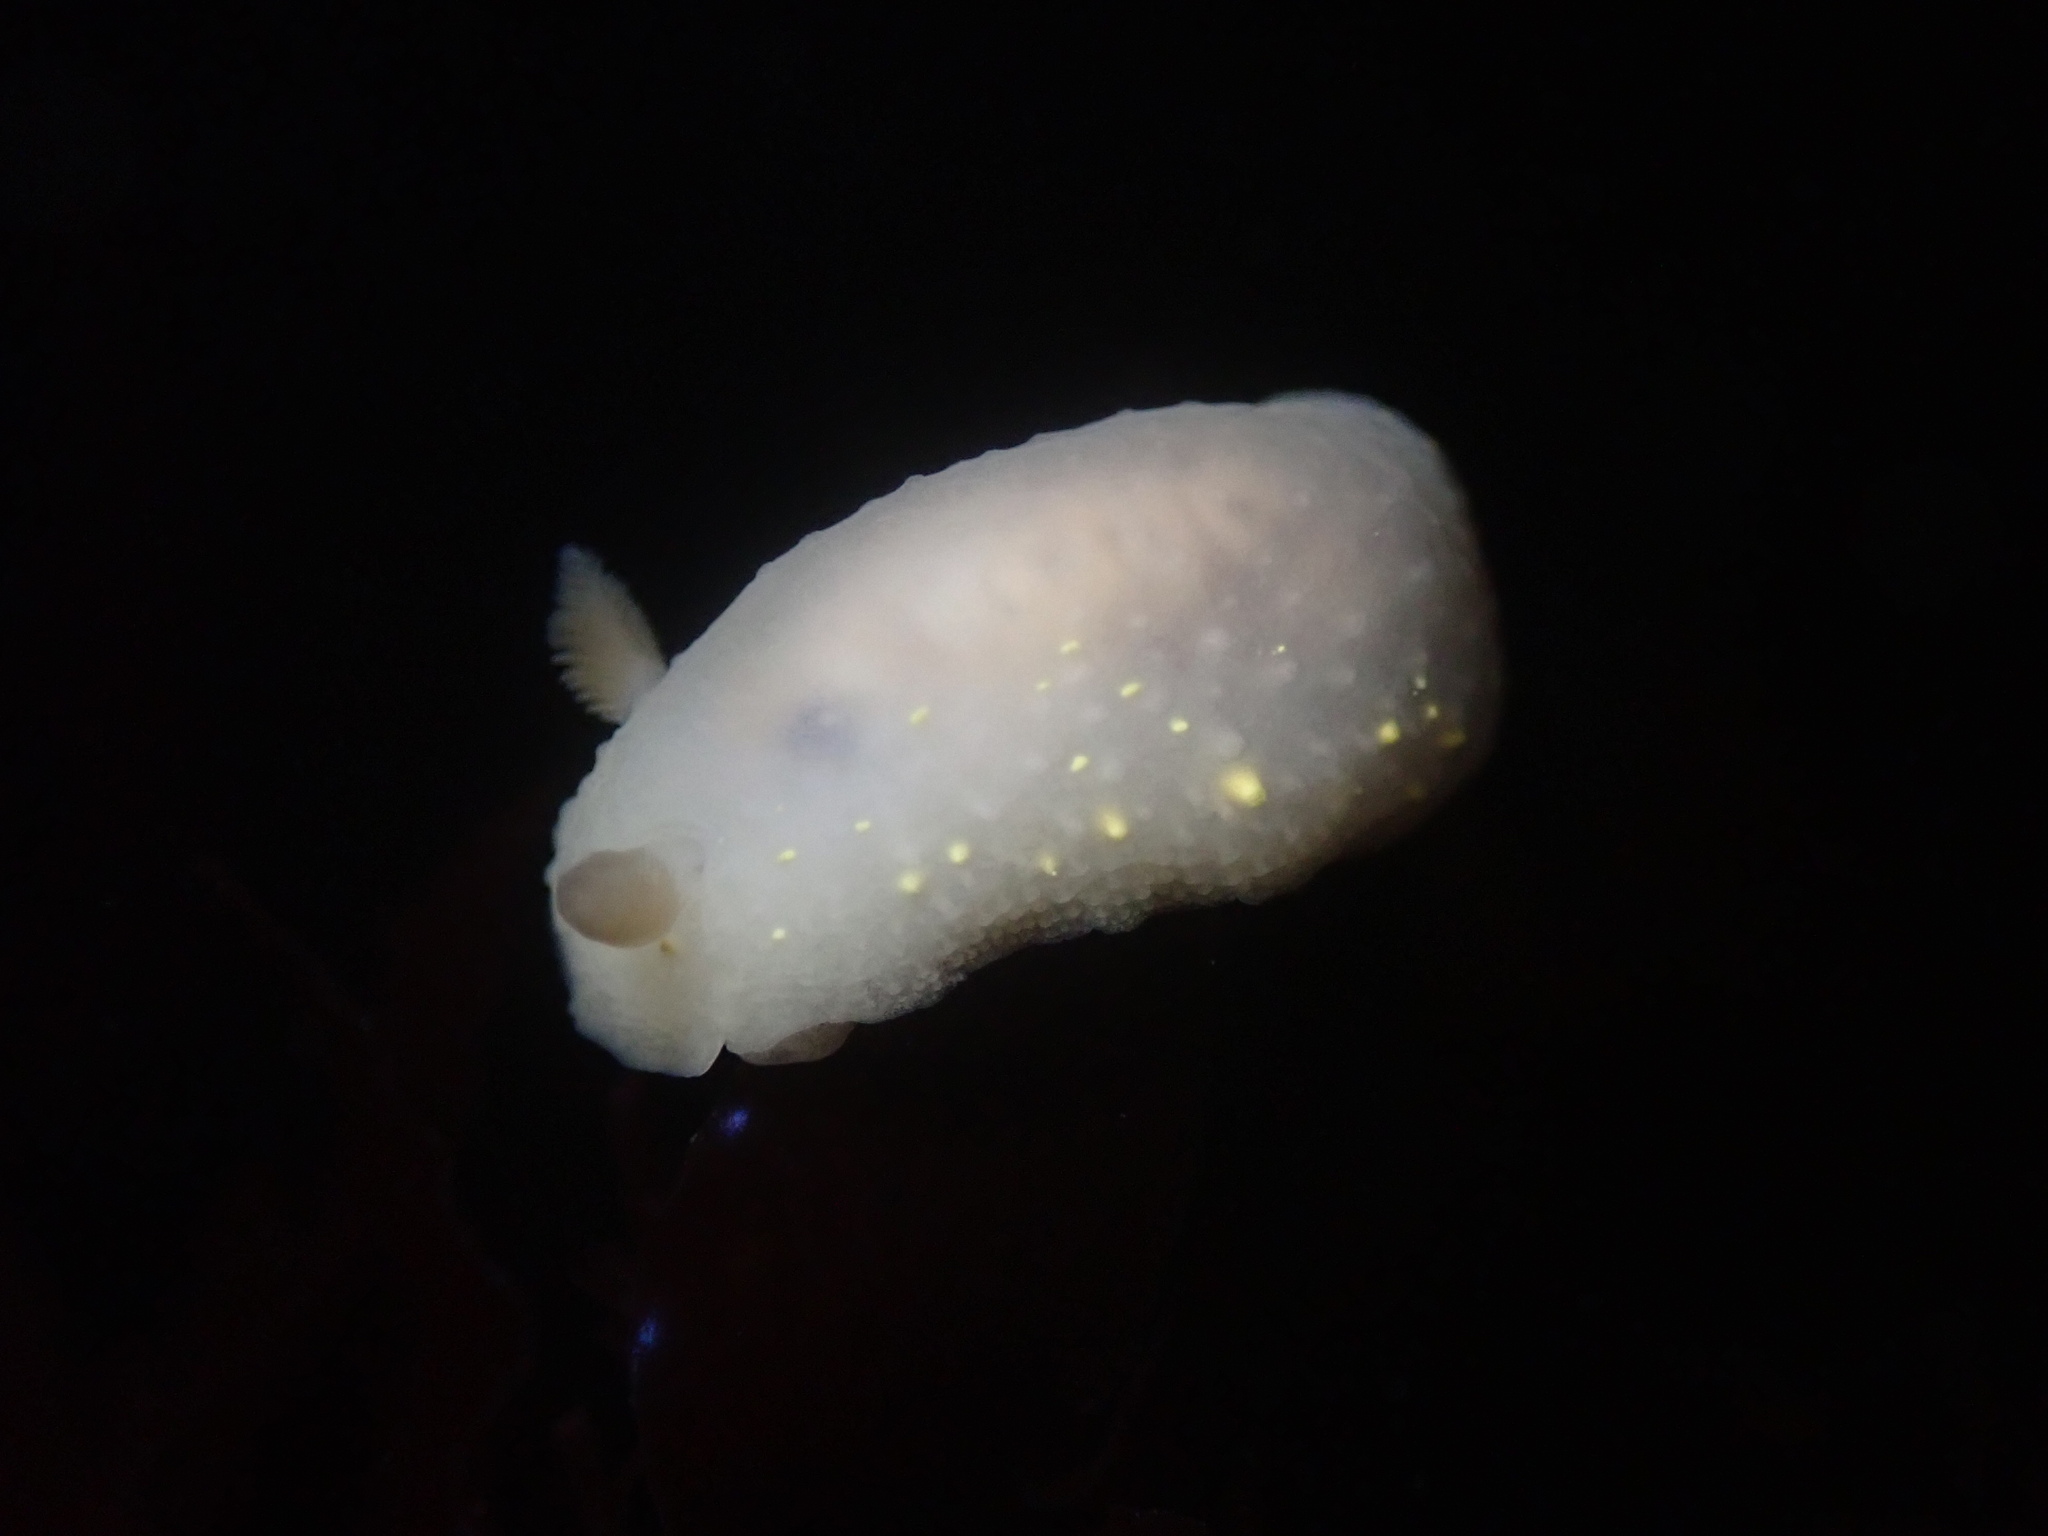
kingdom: Animalia
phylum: Mollusca
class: Gastropoda
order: Nudibranchia
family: Cadlinidae
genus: Cadlina
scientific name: Cadlina modesta
